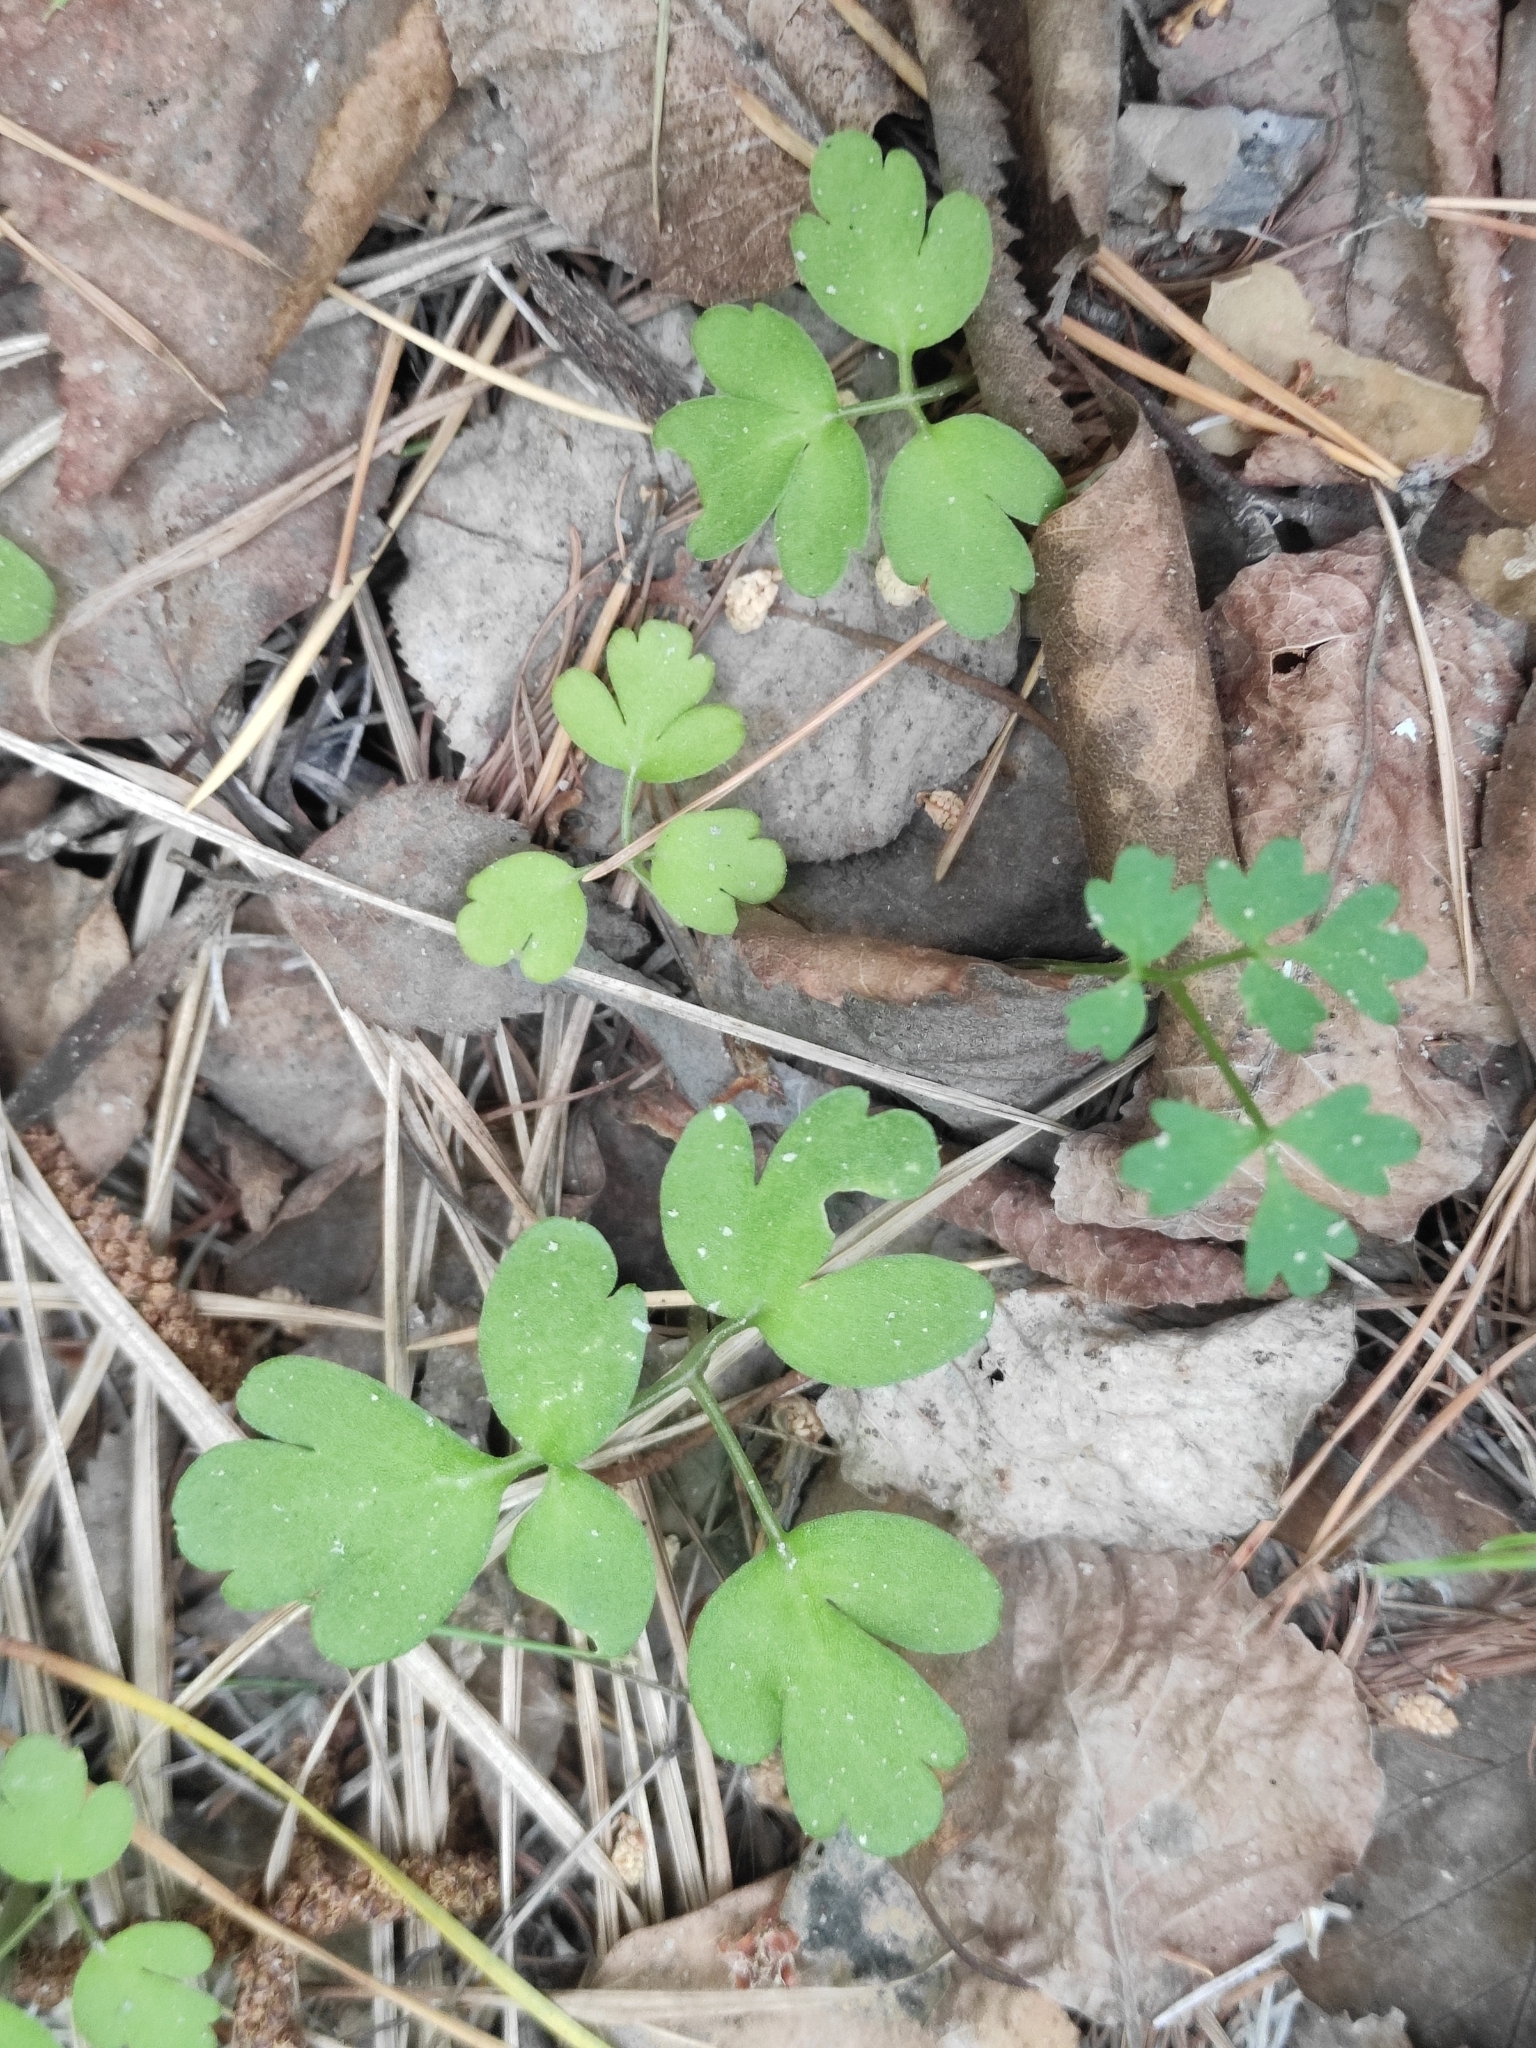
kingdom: Plantae
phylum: Tracheophyta
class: Magnoliopsida
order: Dipsacales
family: Viburnaceae
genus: Adoxa
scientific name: Adoxa moschatellina
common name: Moschatel
